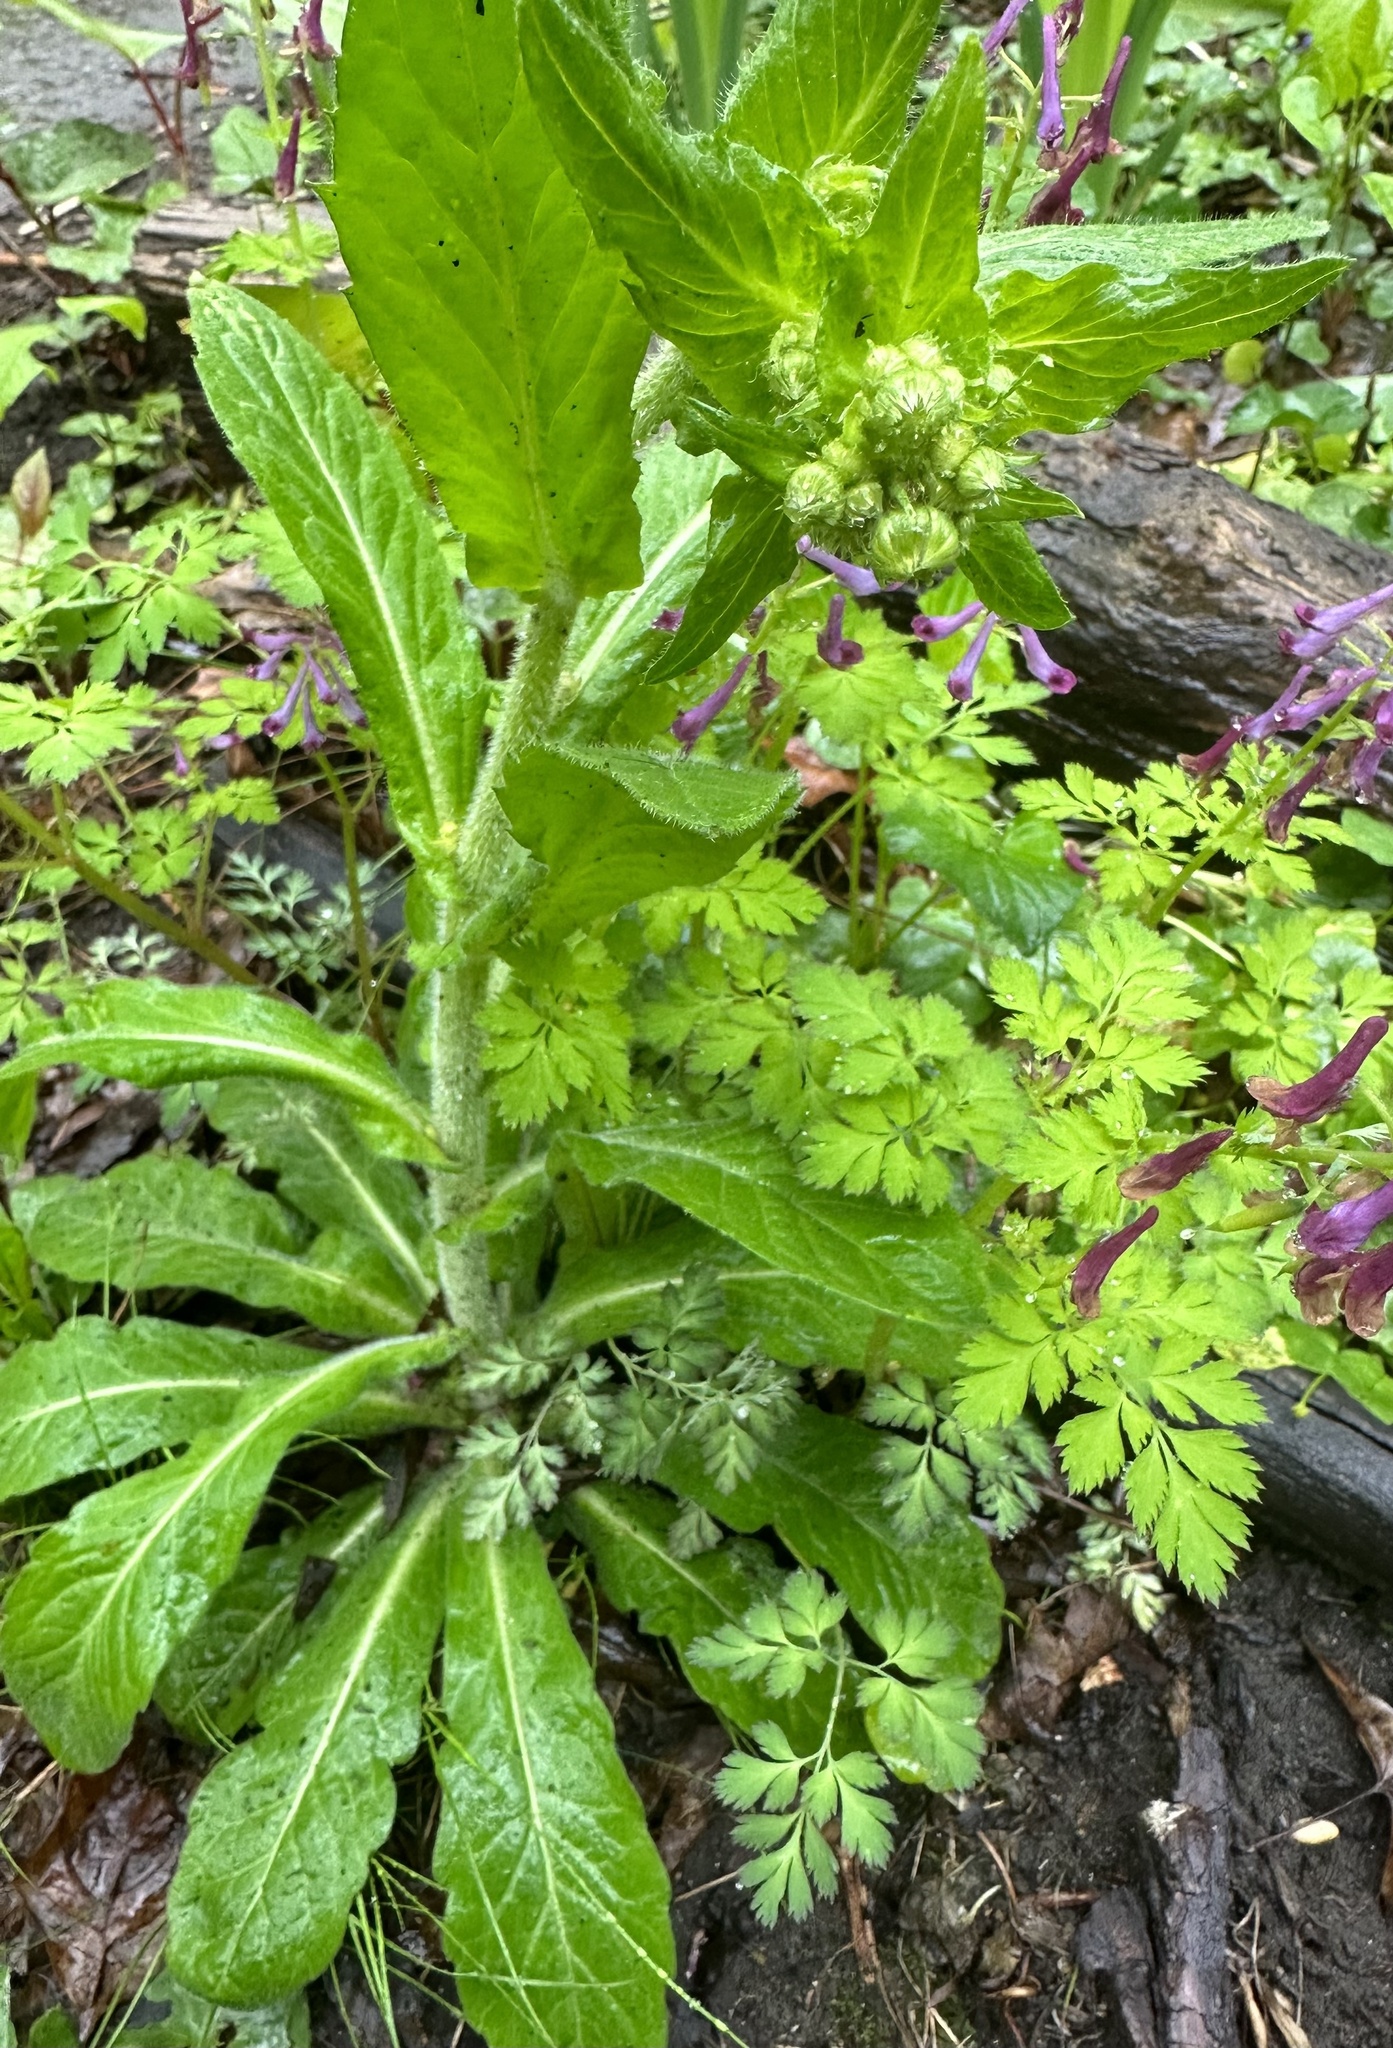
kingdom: Plantae
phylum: Tracheophyta
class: Magnoliopsida
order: Asterales
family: Asteraceae
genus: Erigeron
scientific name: Erigeron philadelphicus
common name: Robin's-plantain
